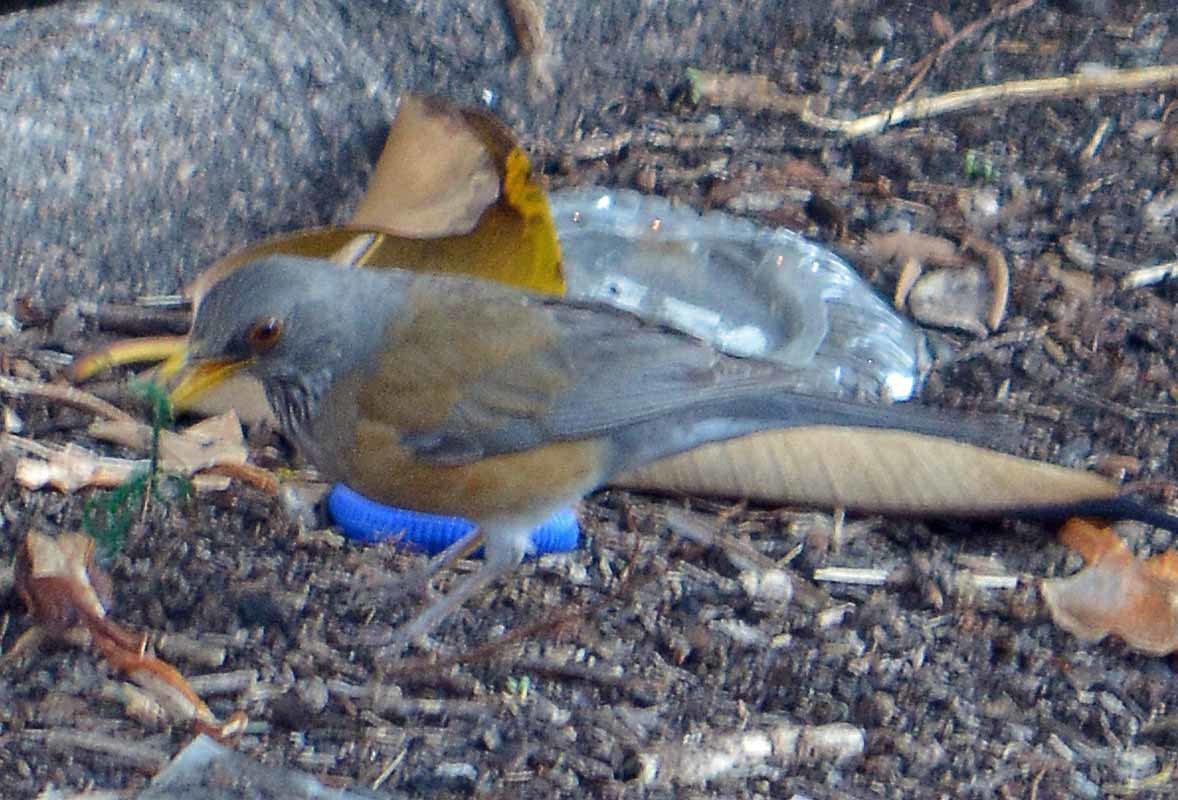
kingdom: Animalia
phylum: Chordata
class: Aves
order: Passeriformes
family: Turdidae
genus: Turdus
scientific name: Turdus rufopalliatus
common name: Rufous-backed robin
